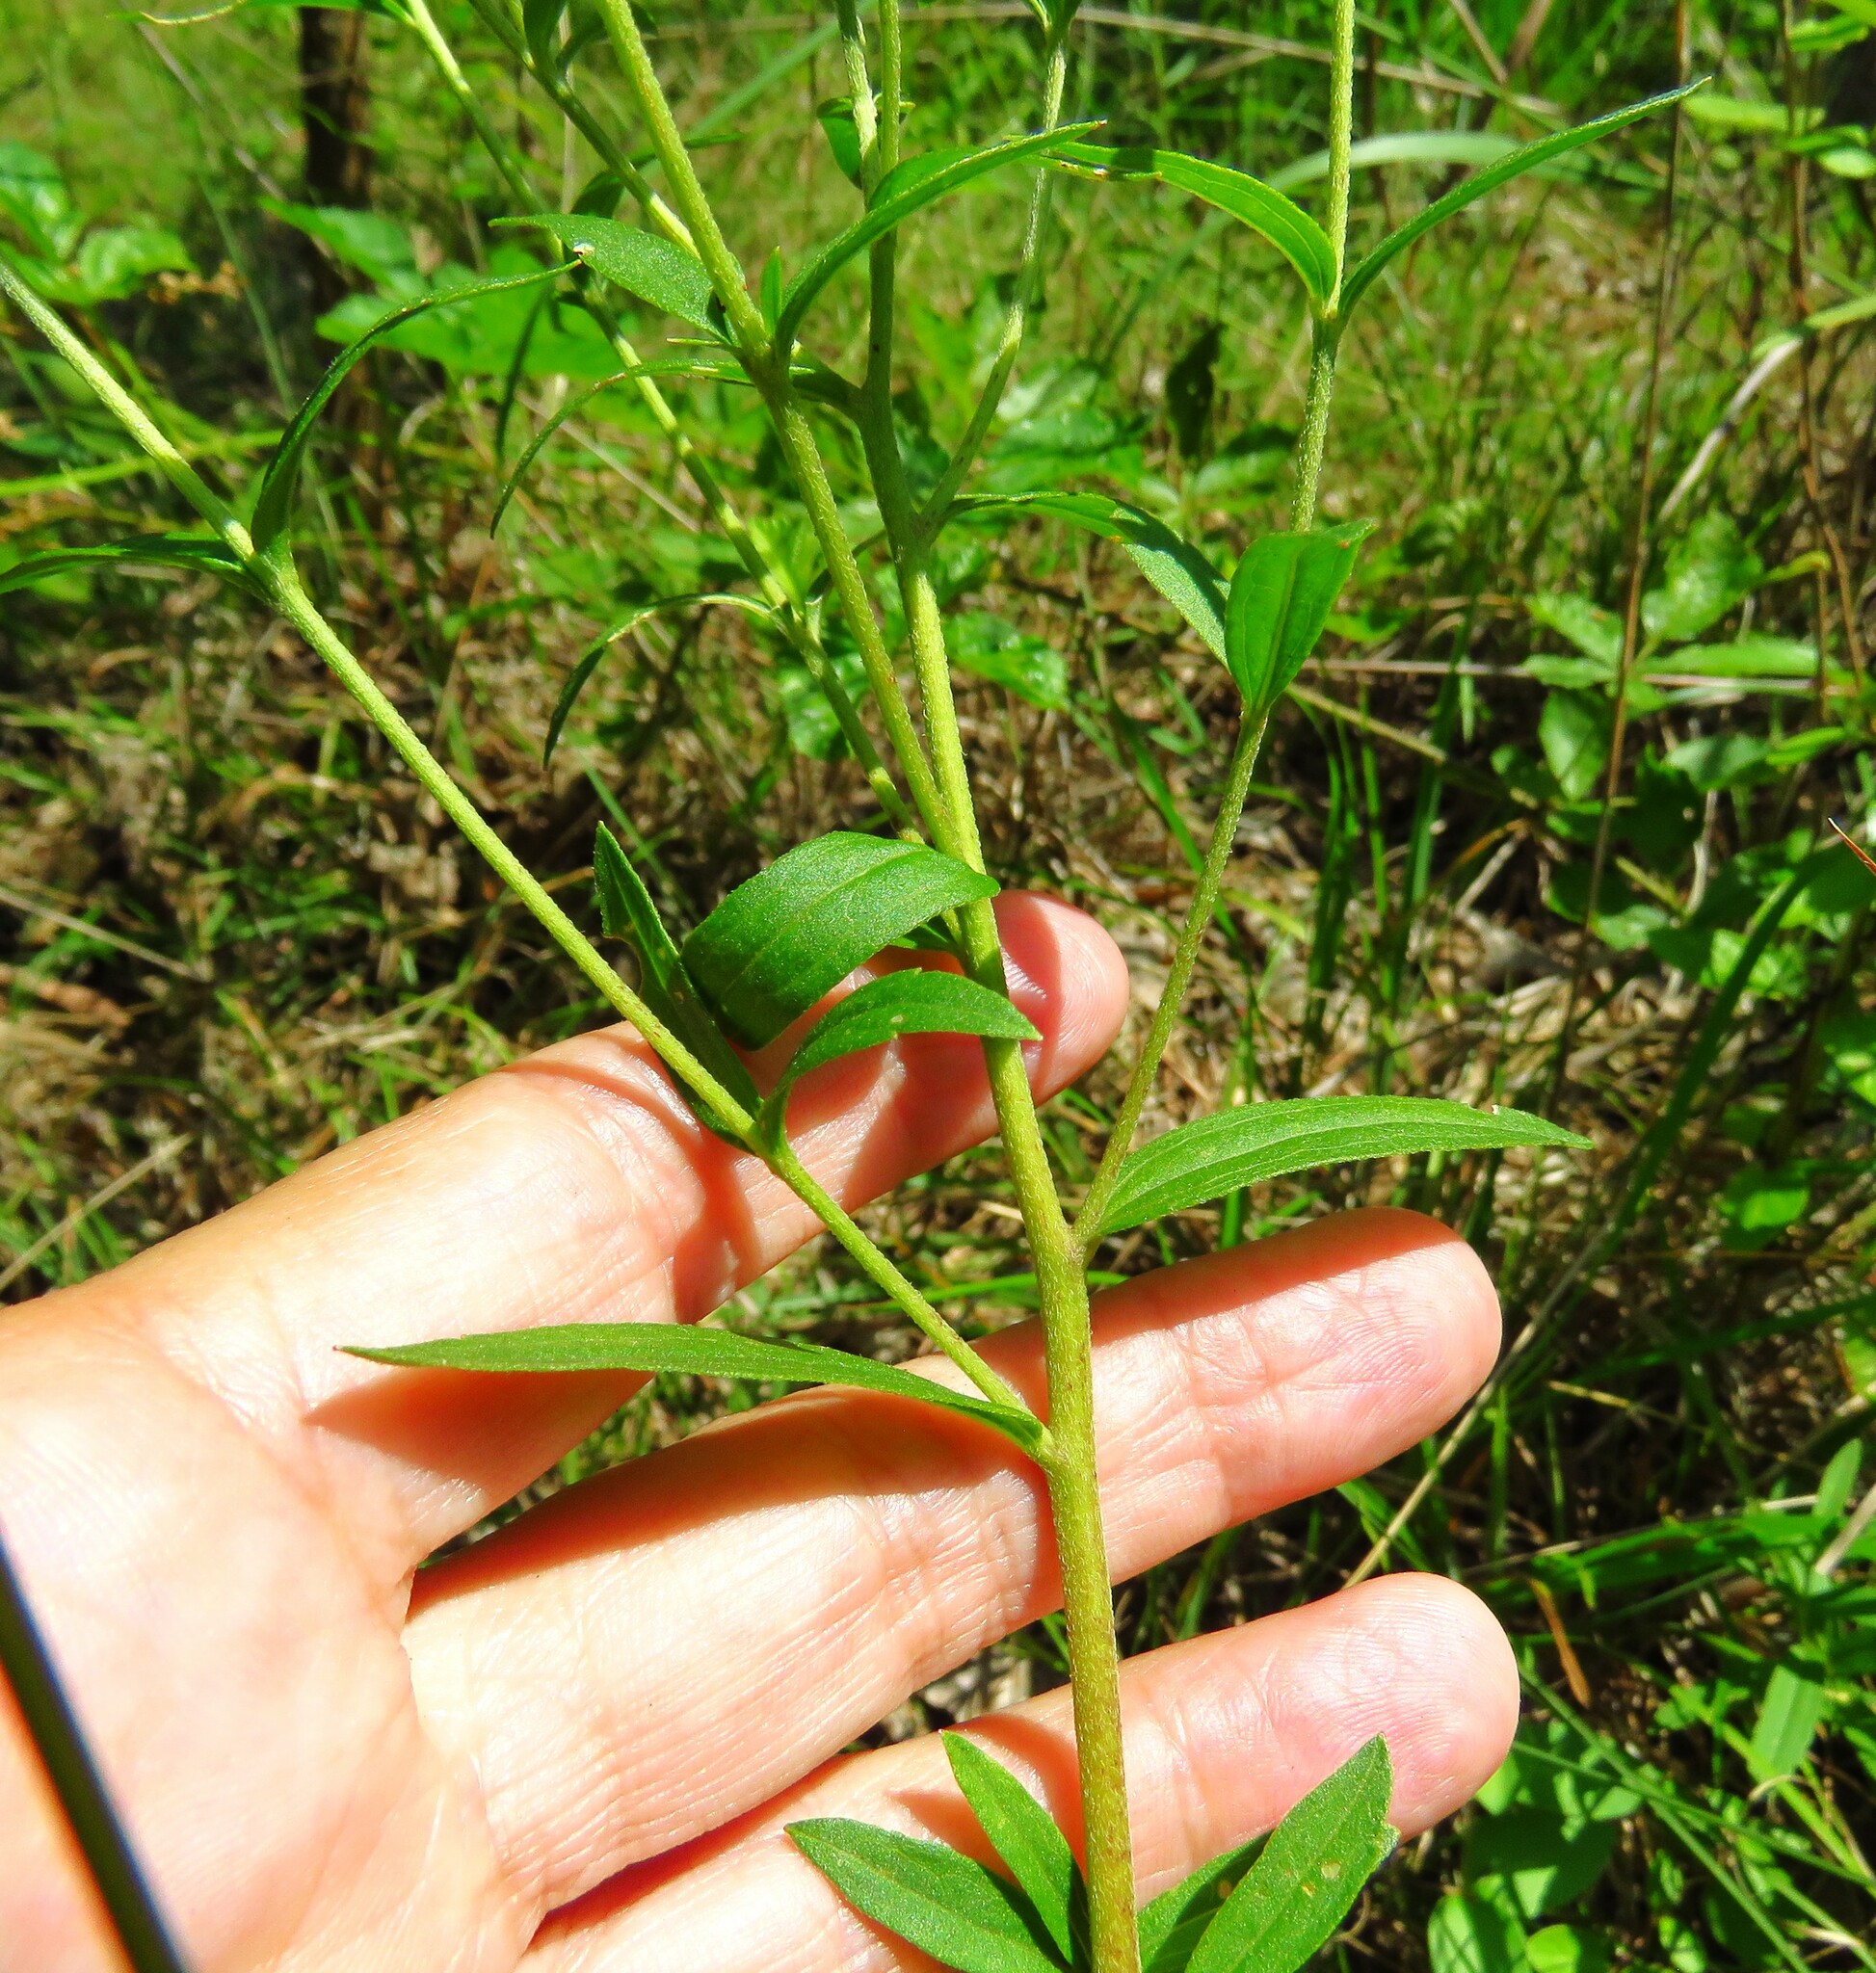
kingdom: Plantae
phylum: Tracheophyta
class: Magnoliopsida
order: Asterales
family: Asteraceae
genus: Eupatorium
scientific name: Eupatorium subvenosum
